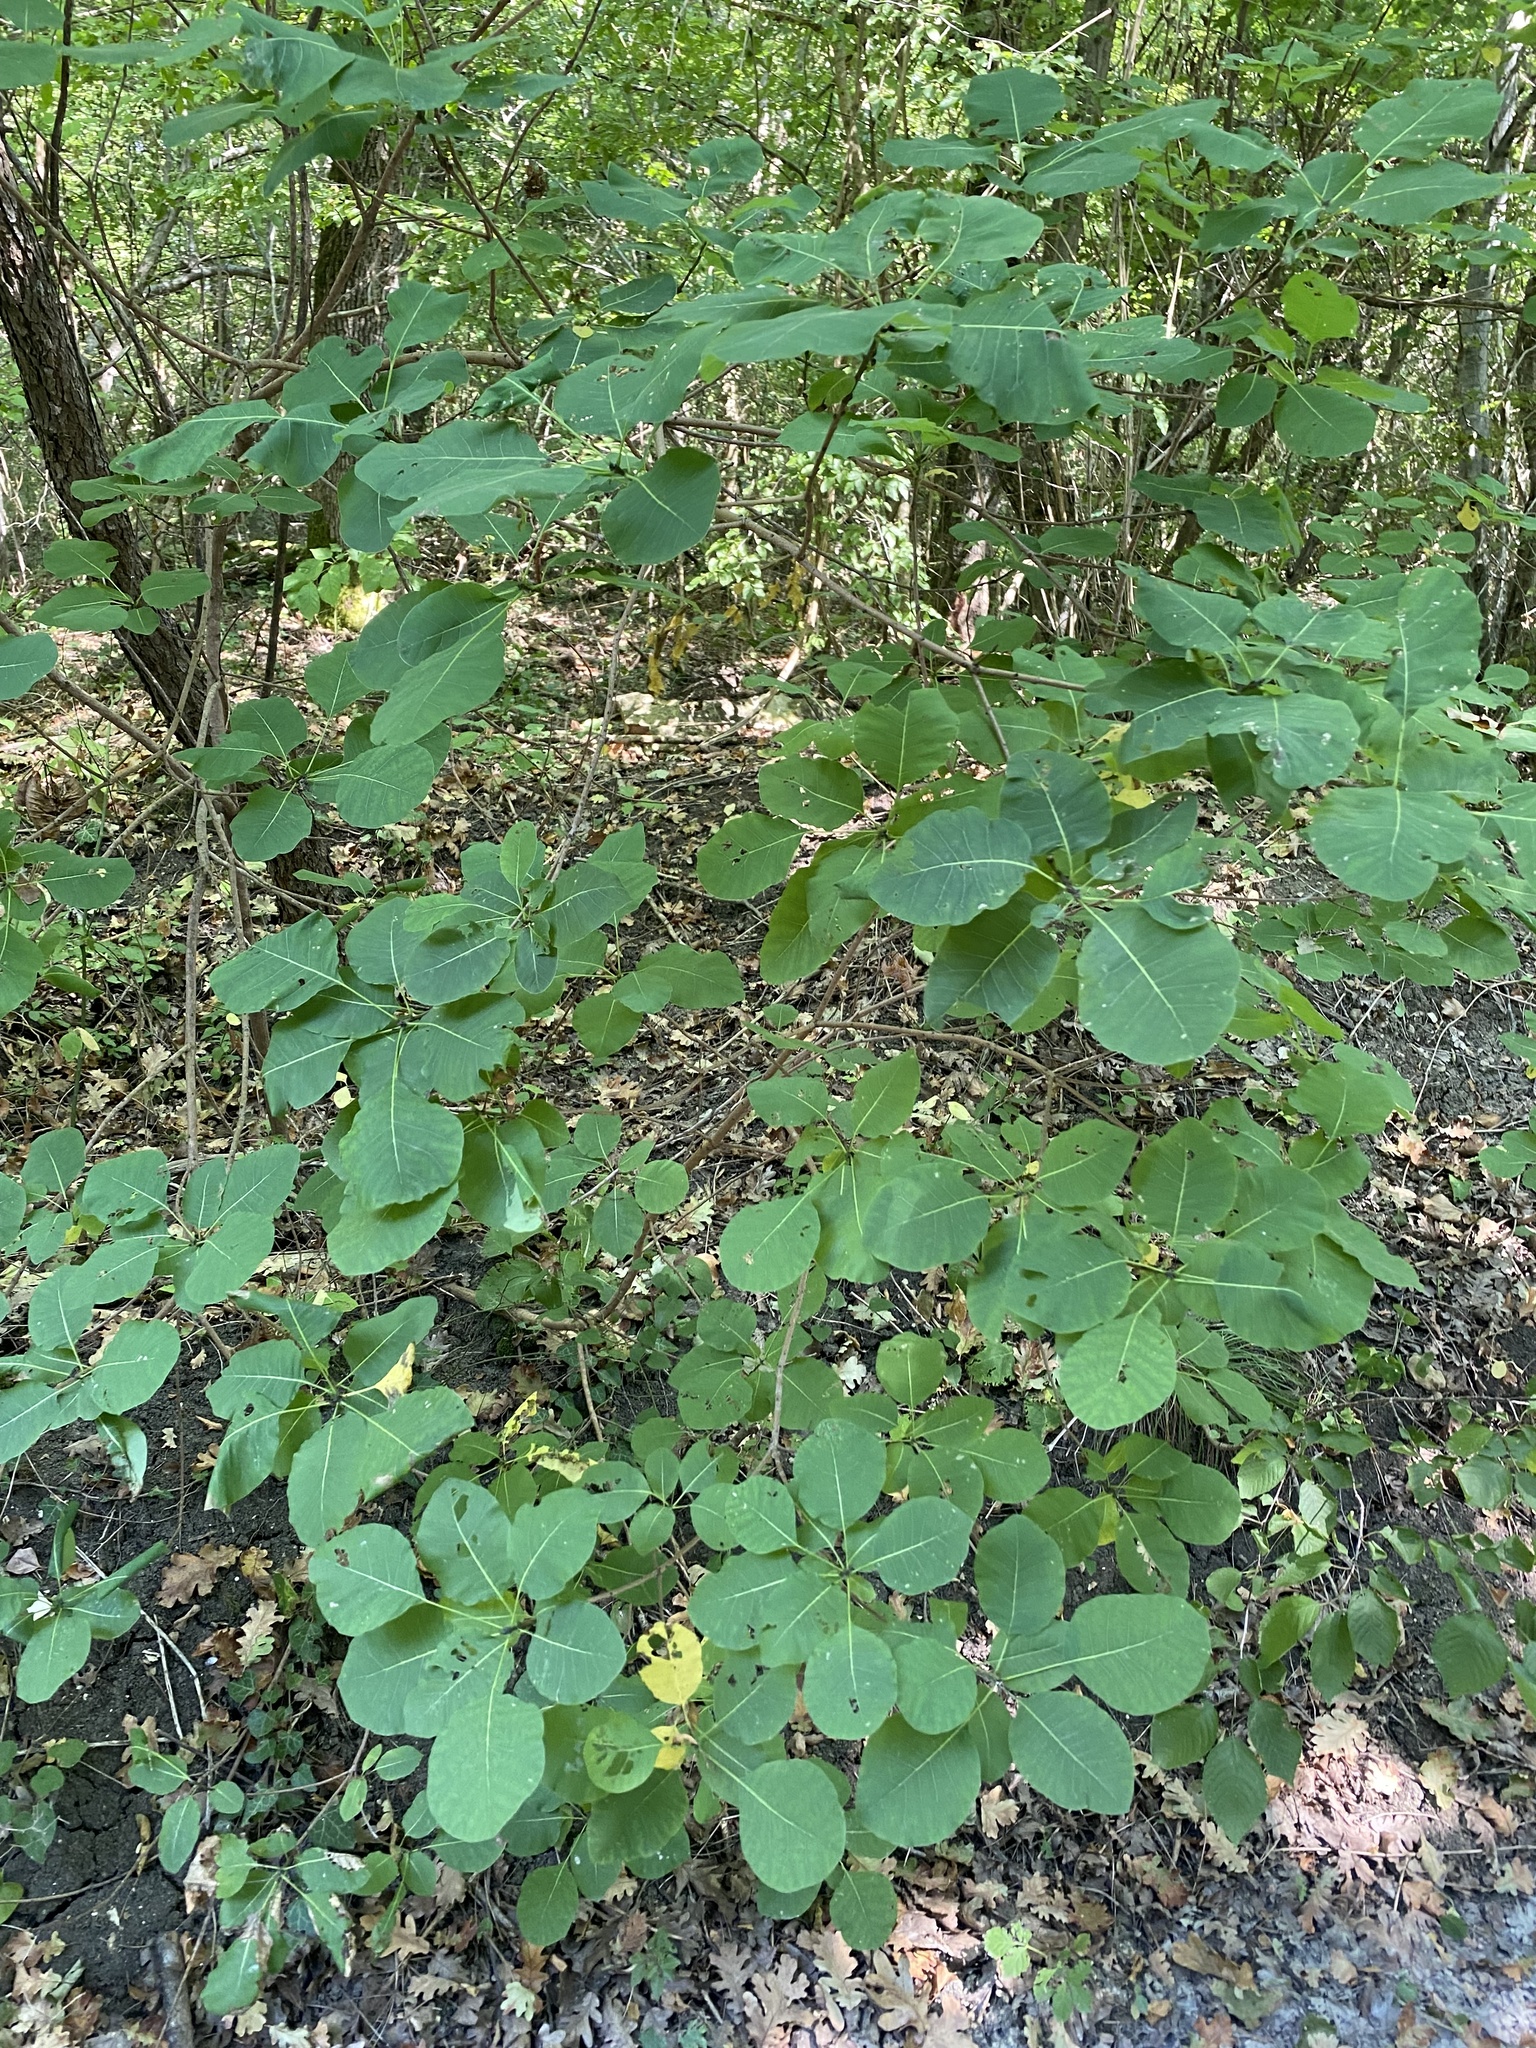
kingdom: Plantae
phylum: Tracheophyta
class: Magnoliopsida
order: Sapindales
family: Anacardiaceae
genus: Cotinus
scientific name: Cotinus coggygria
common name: Smoke-tree
